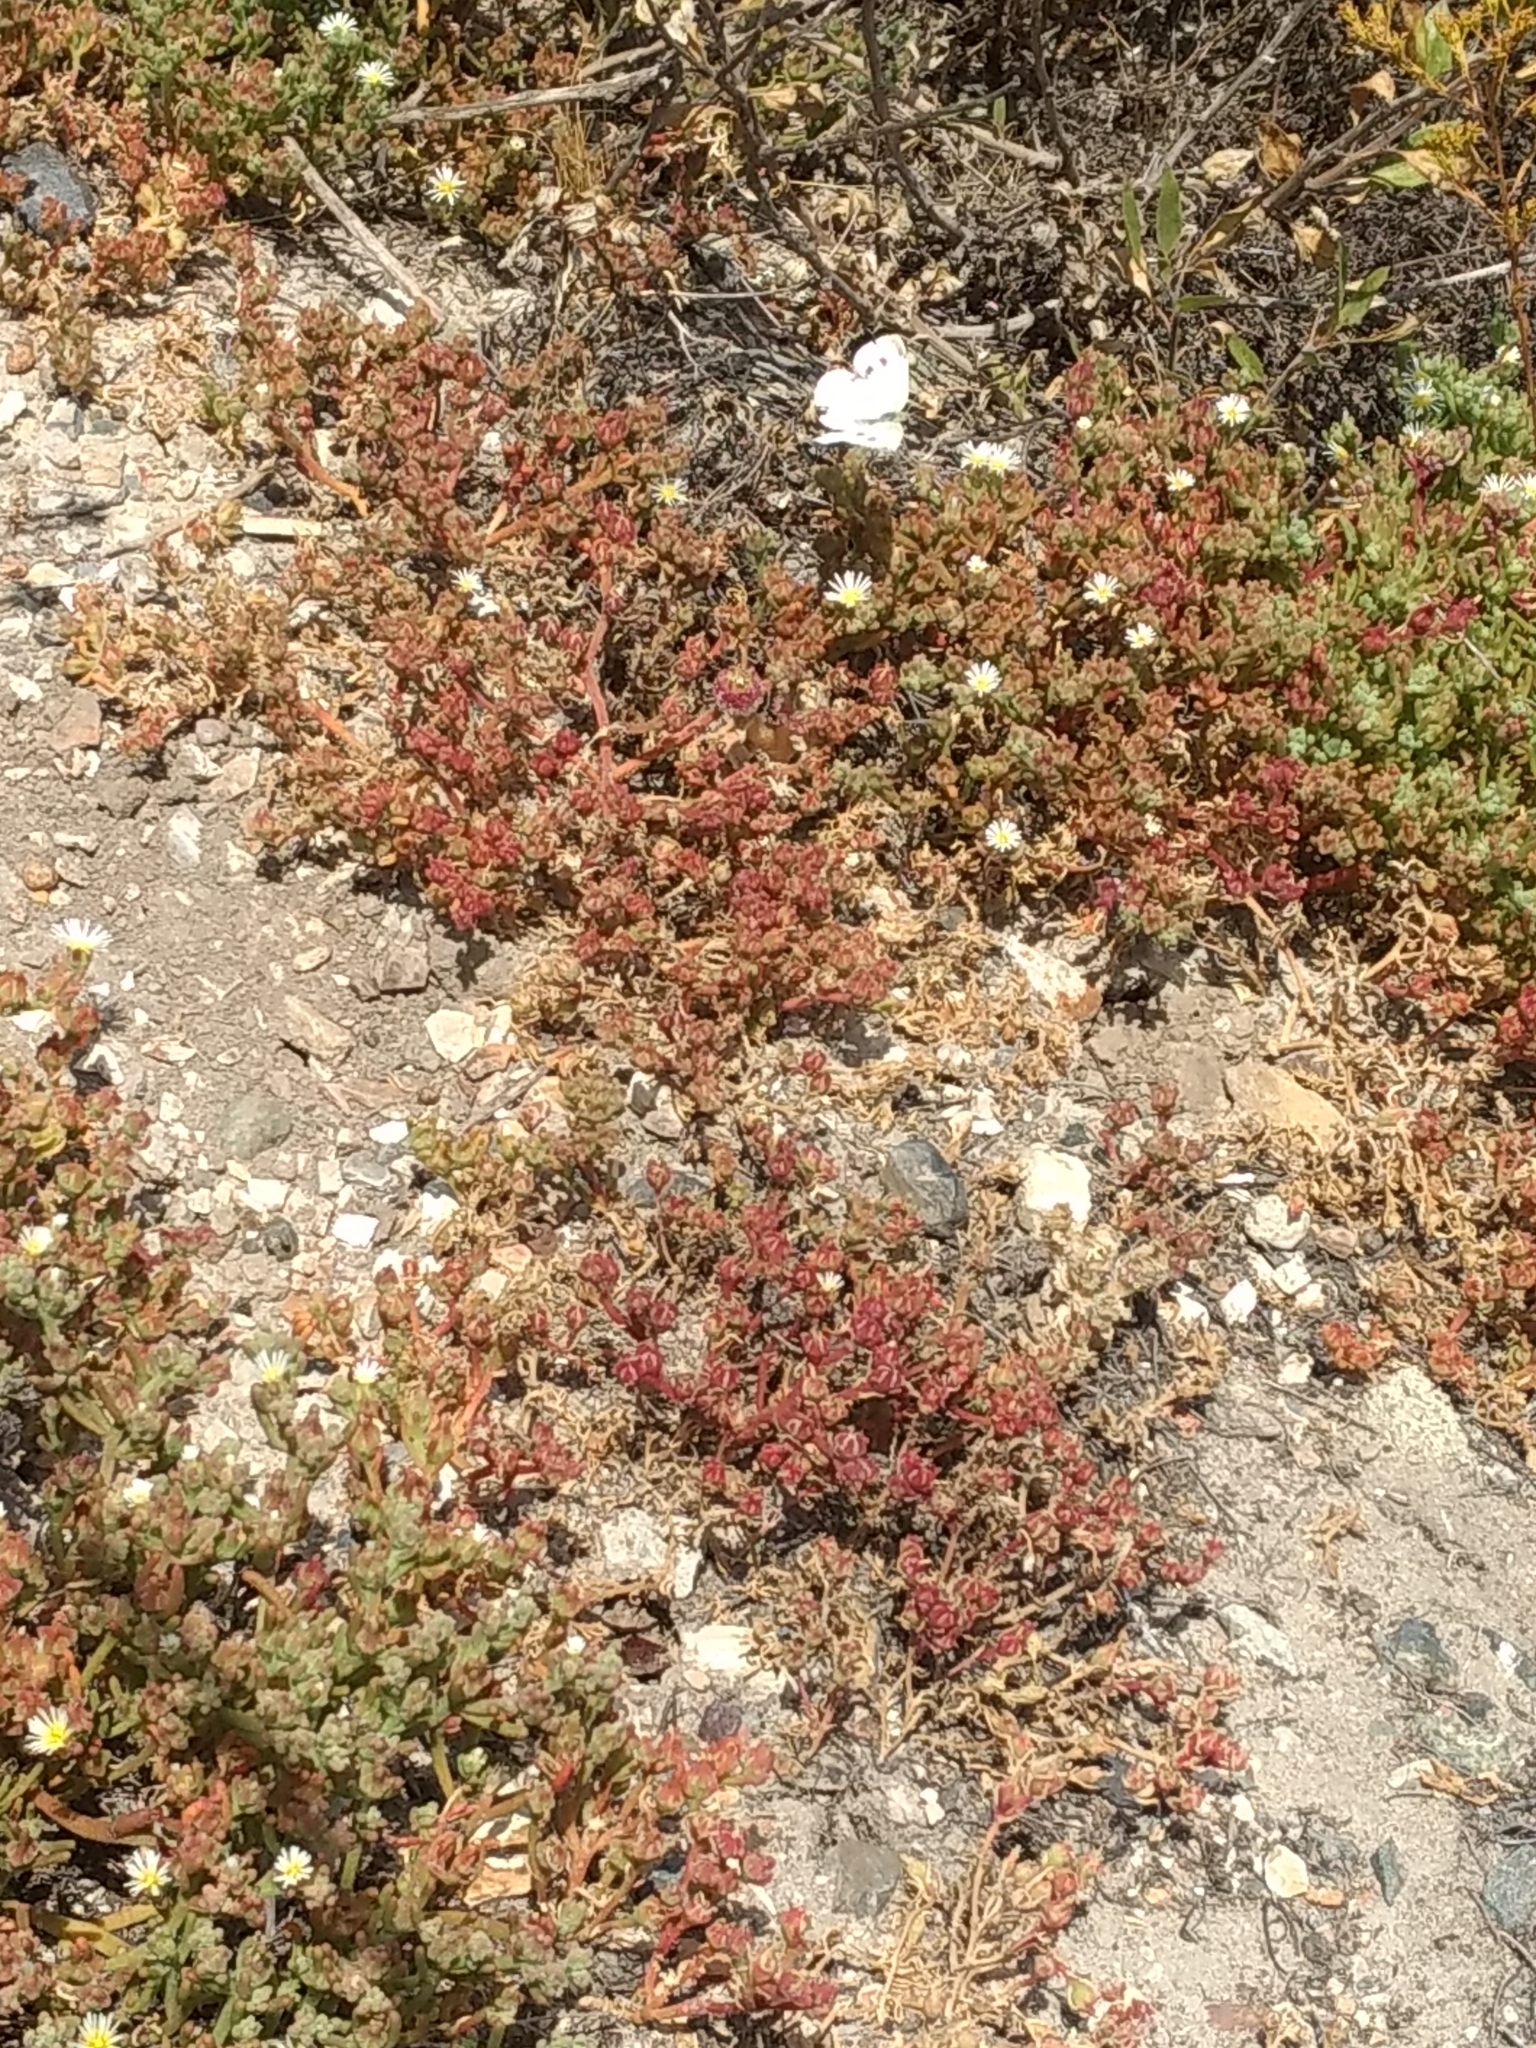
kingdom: Animalia
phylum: Arthropoda
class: Insecta
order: Lepidoptera
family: Pieridae
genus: Pieris
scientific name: Pieris rapae
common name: Small white
